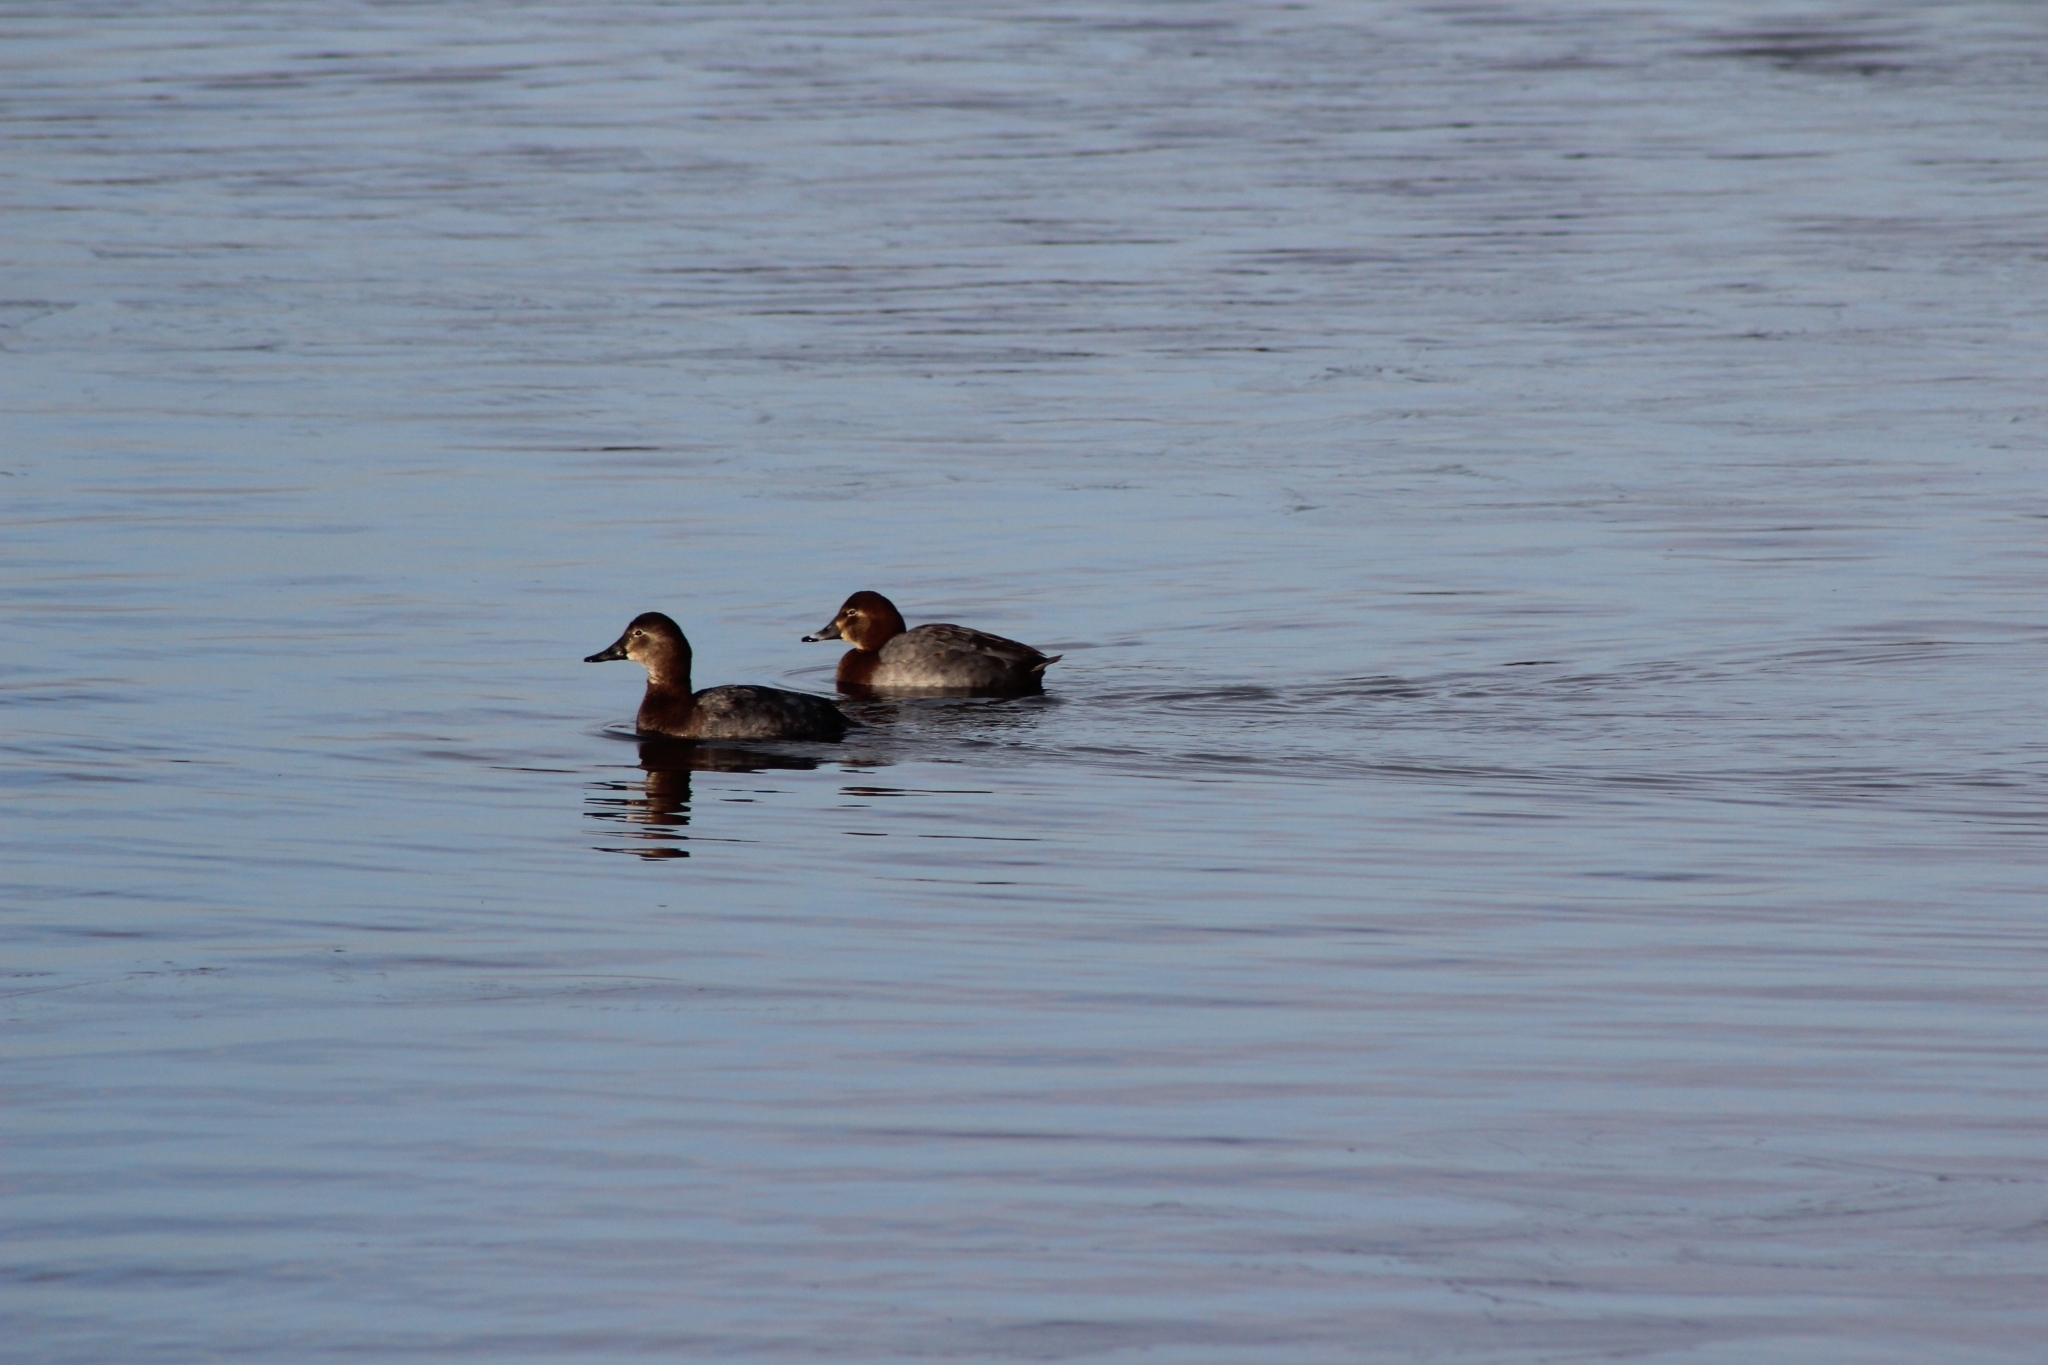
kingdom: Animalia
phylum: Chordata
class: Aves
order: Anseriformes
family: Anatidae
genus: Aythya
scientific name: Aythya ferina
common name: Common pochard
